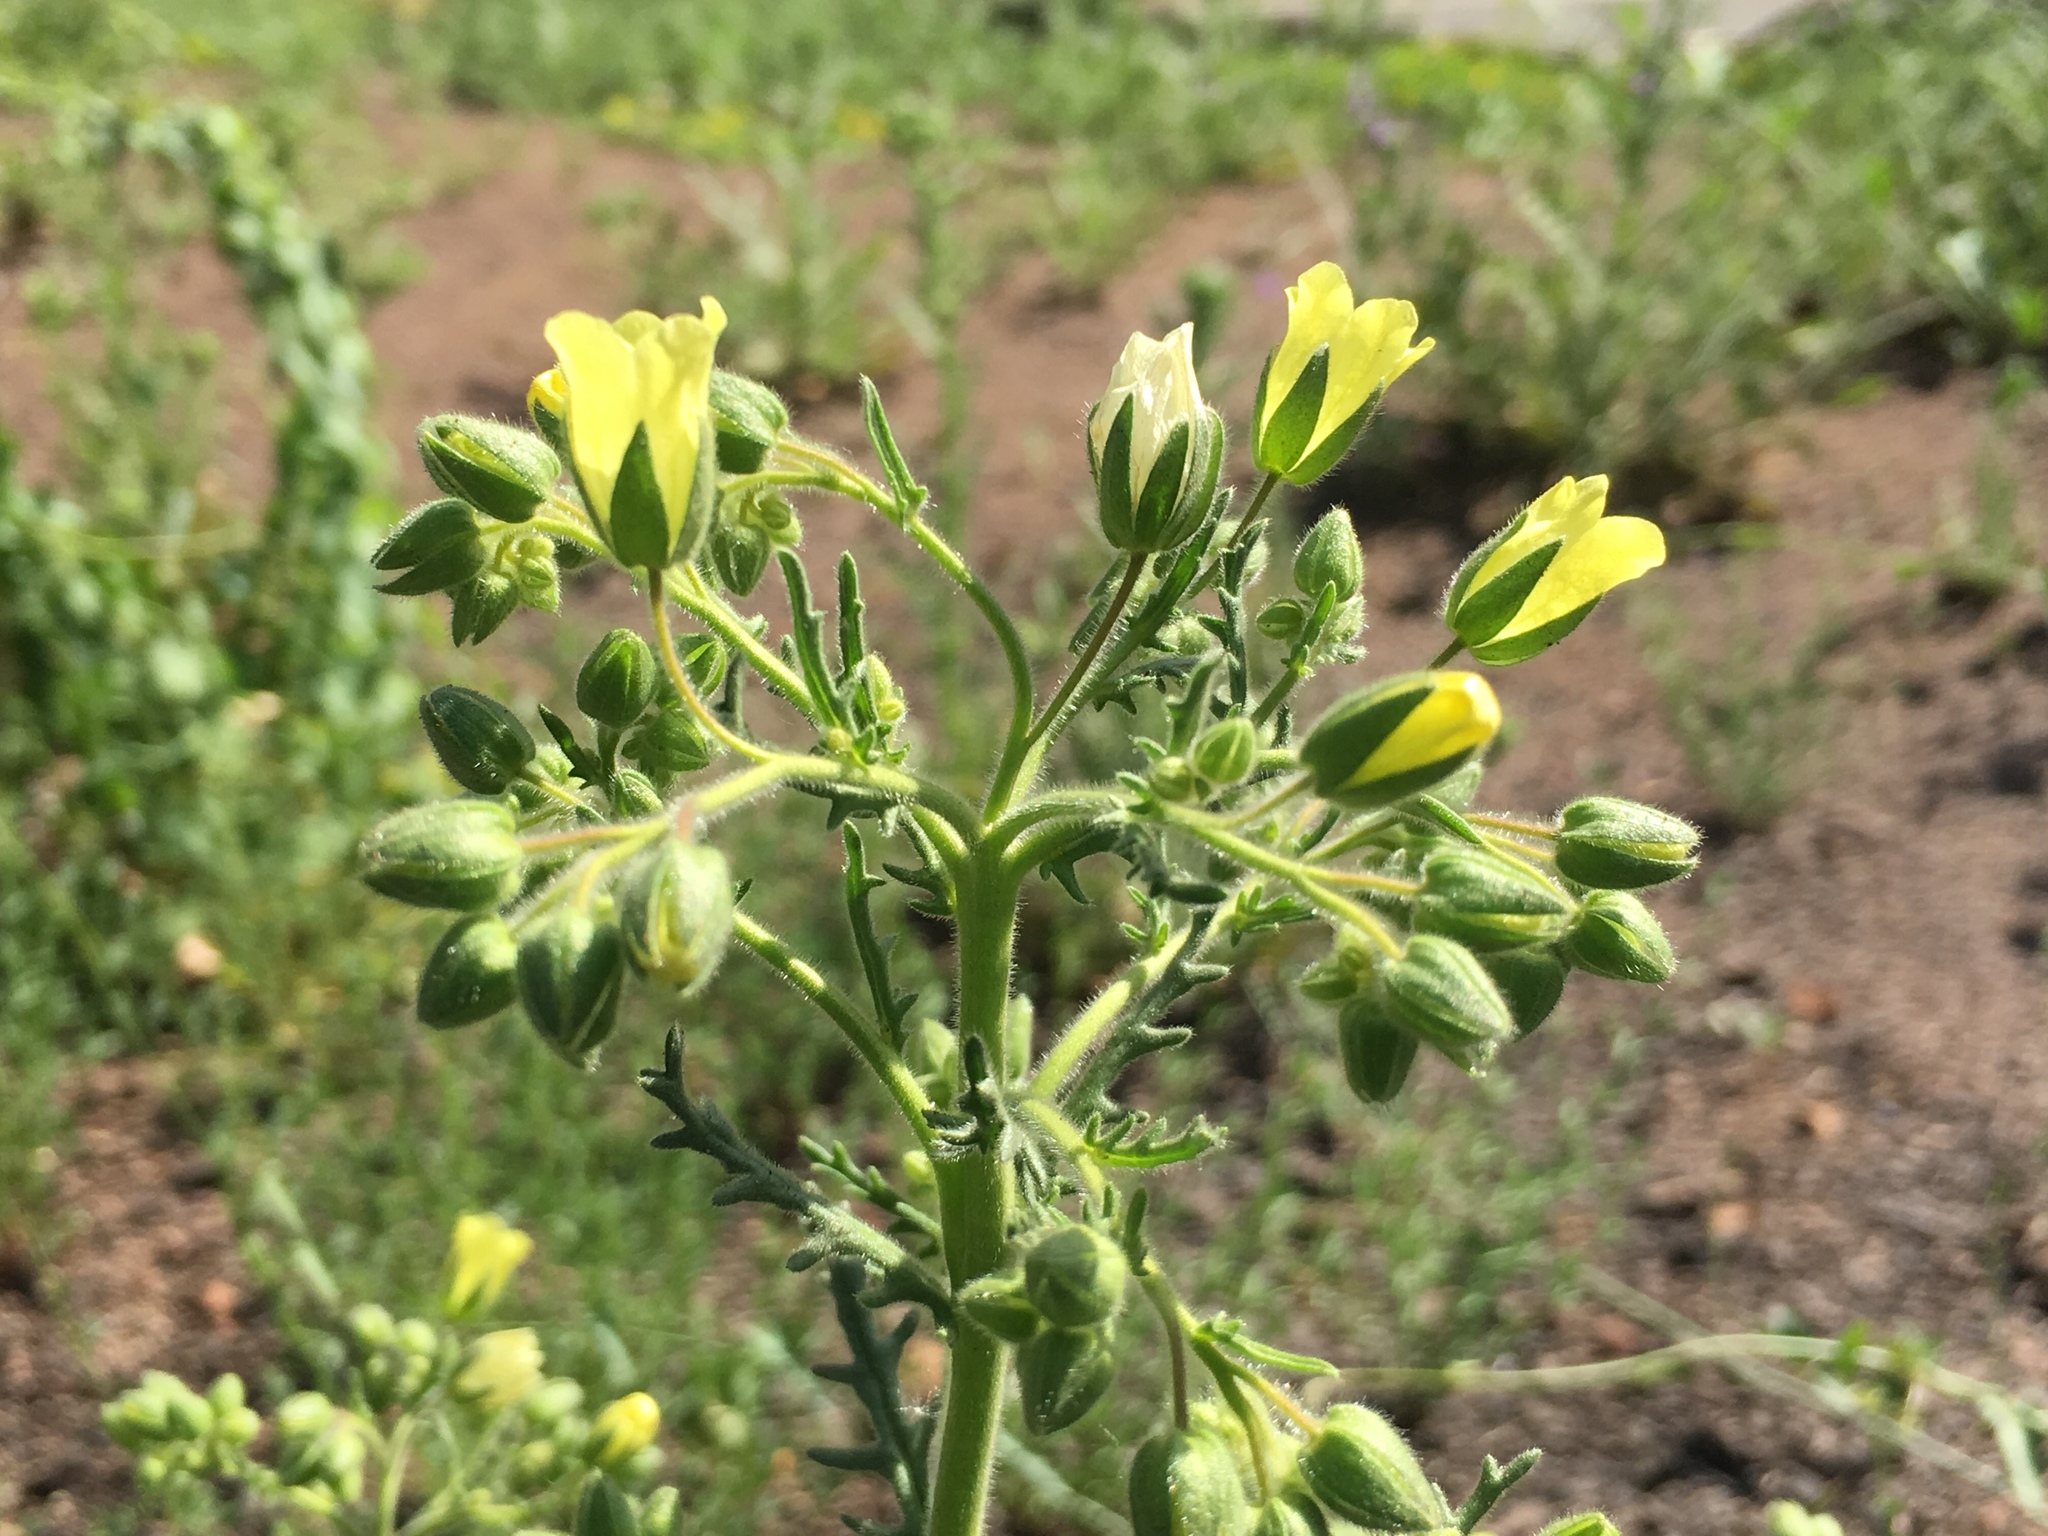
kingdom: Plantae
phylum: Tracheophyta
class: Magnoliopsida
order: Boraginales
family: Hydrophyllaceae
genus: Emmenanthe
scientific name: Emmenanthe penduliflora
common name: Whispering-bells
